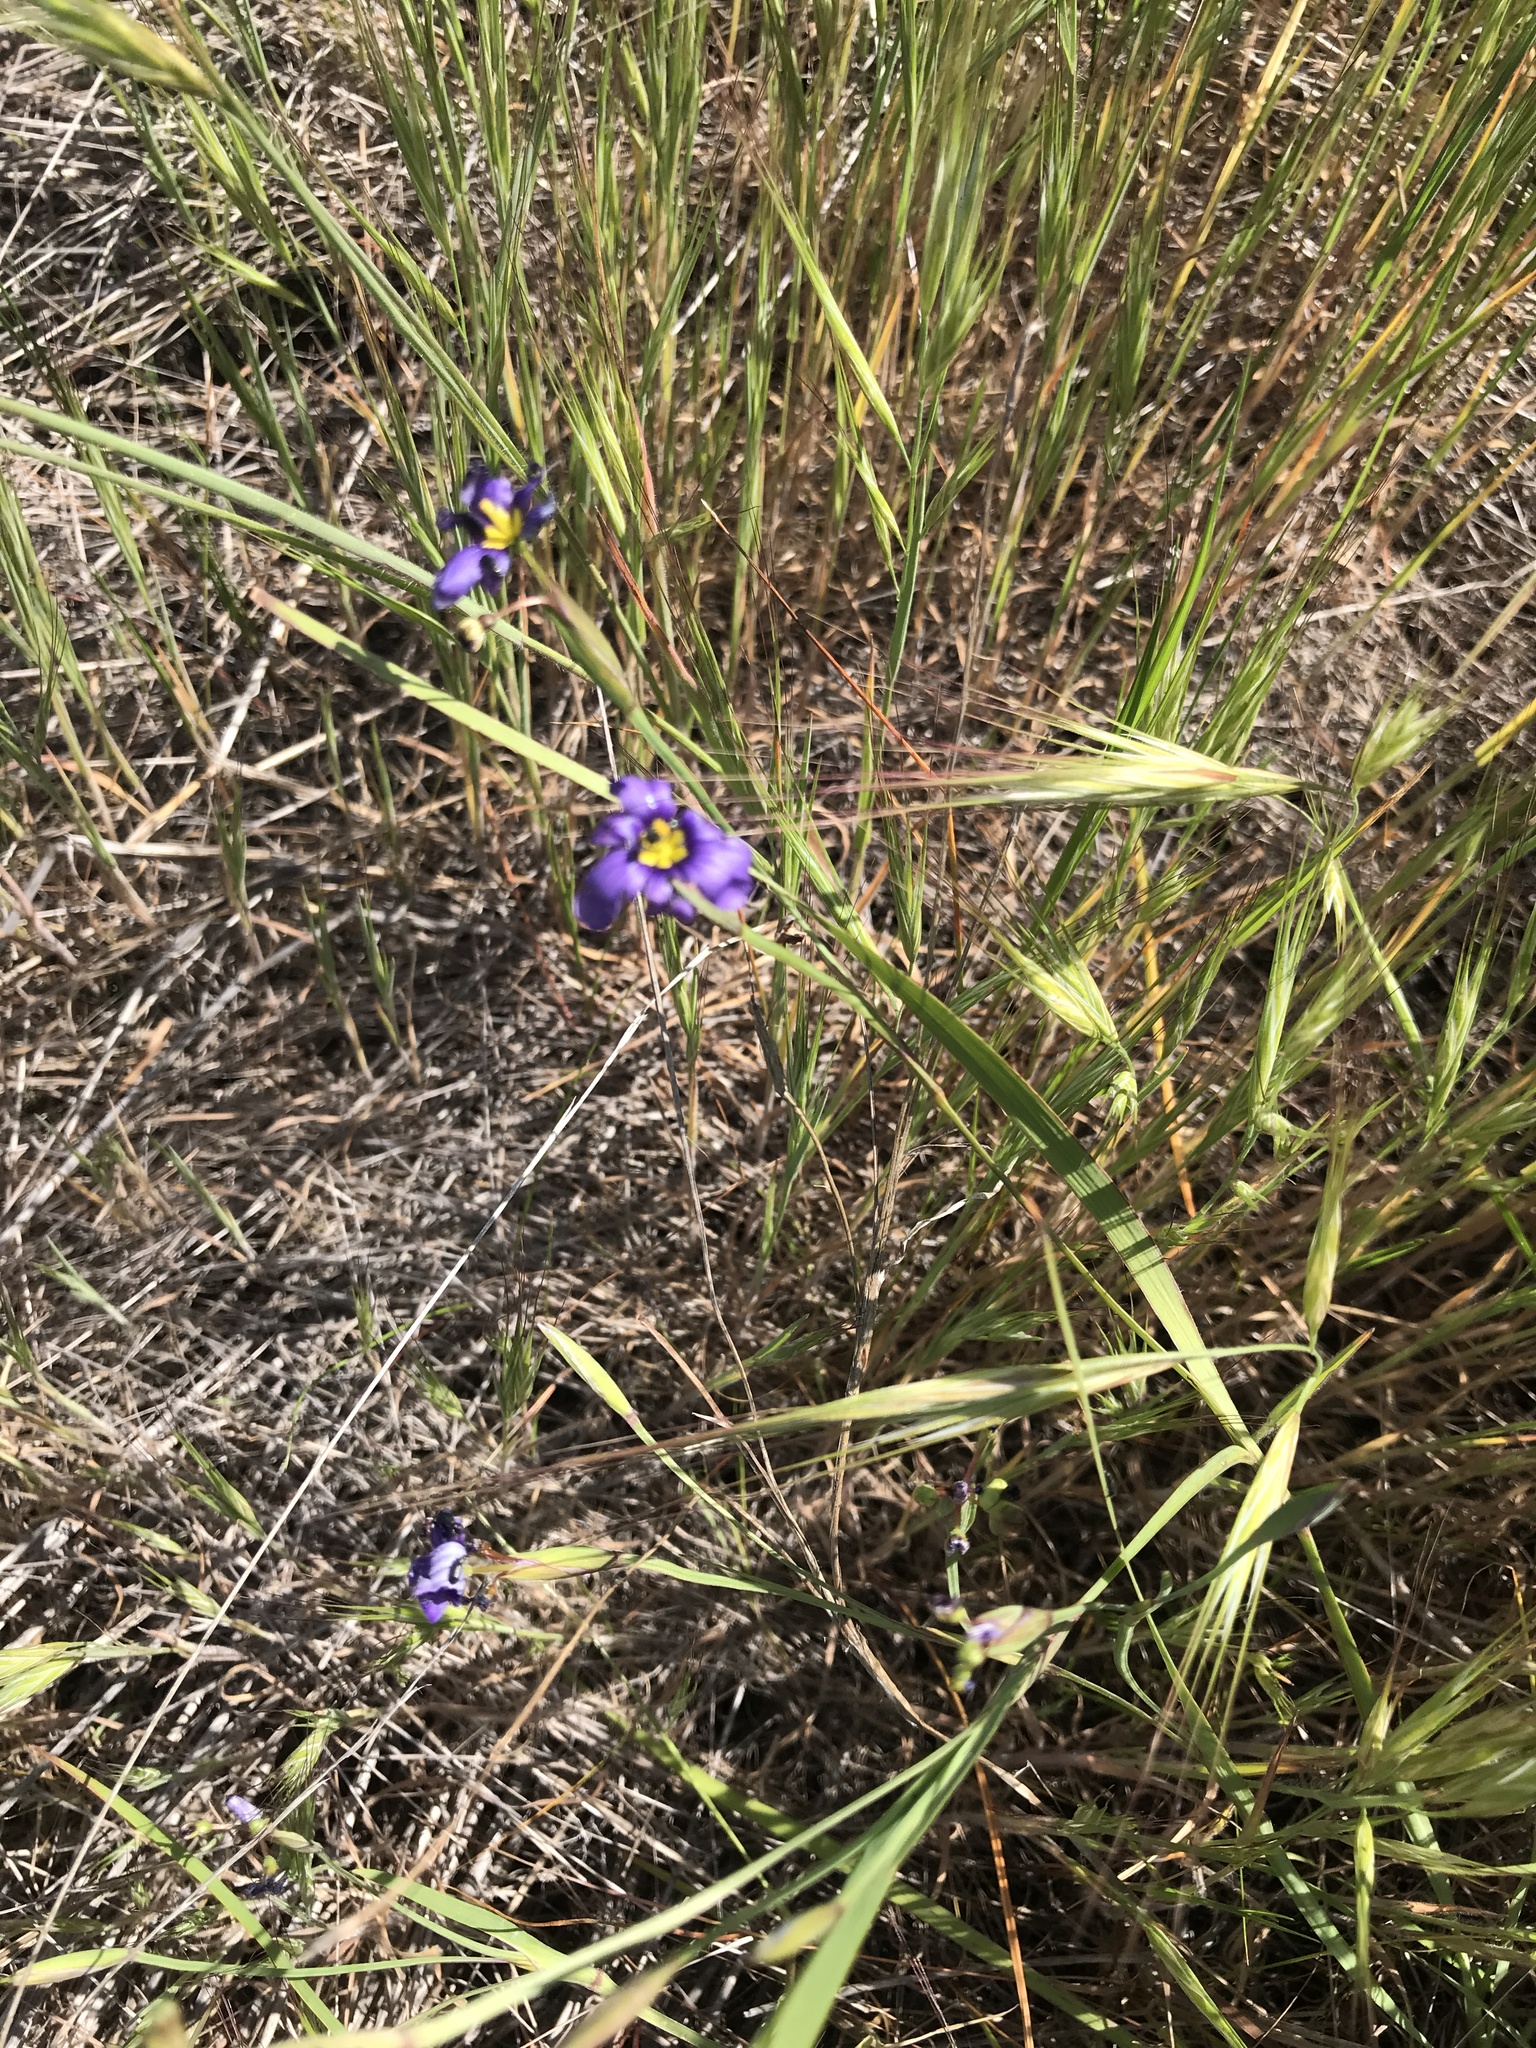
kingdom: Plantae
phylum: Tracheophyta
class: Liliopsida
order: Asparagales
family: Iridaceae
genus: Sisyrinchium
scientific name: Sisyrinchium bellum
